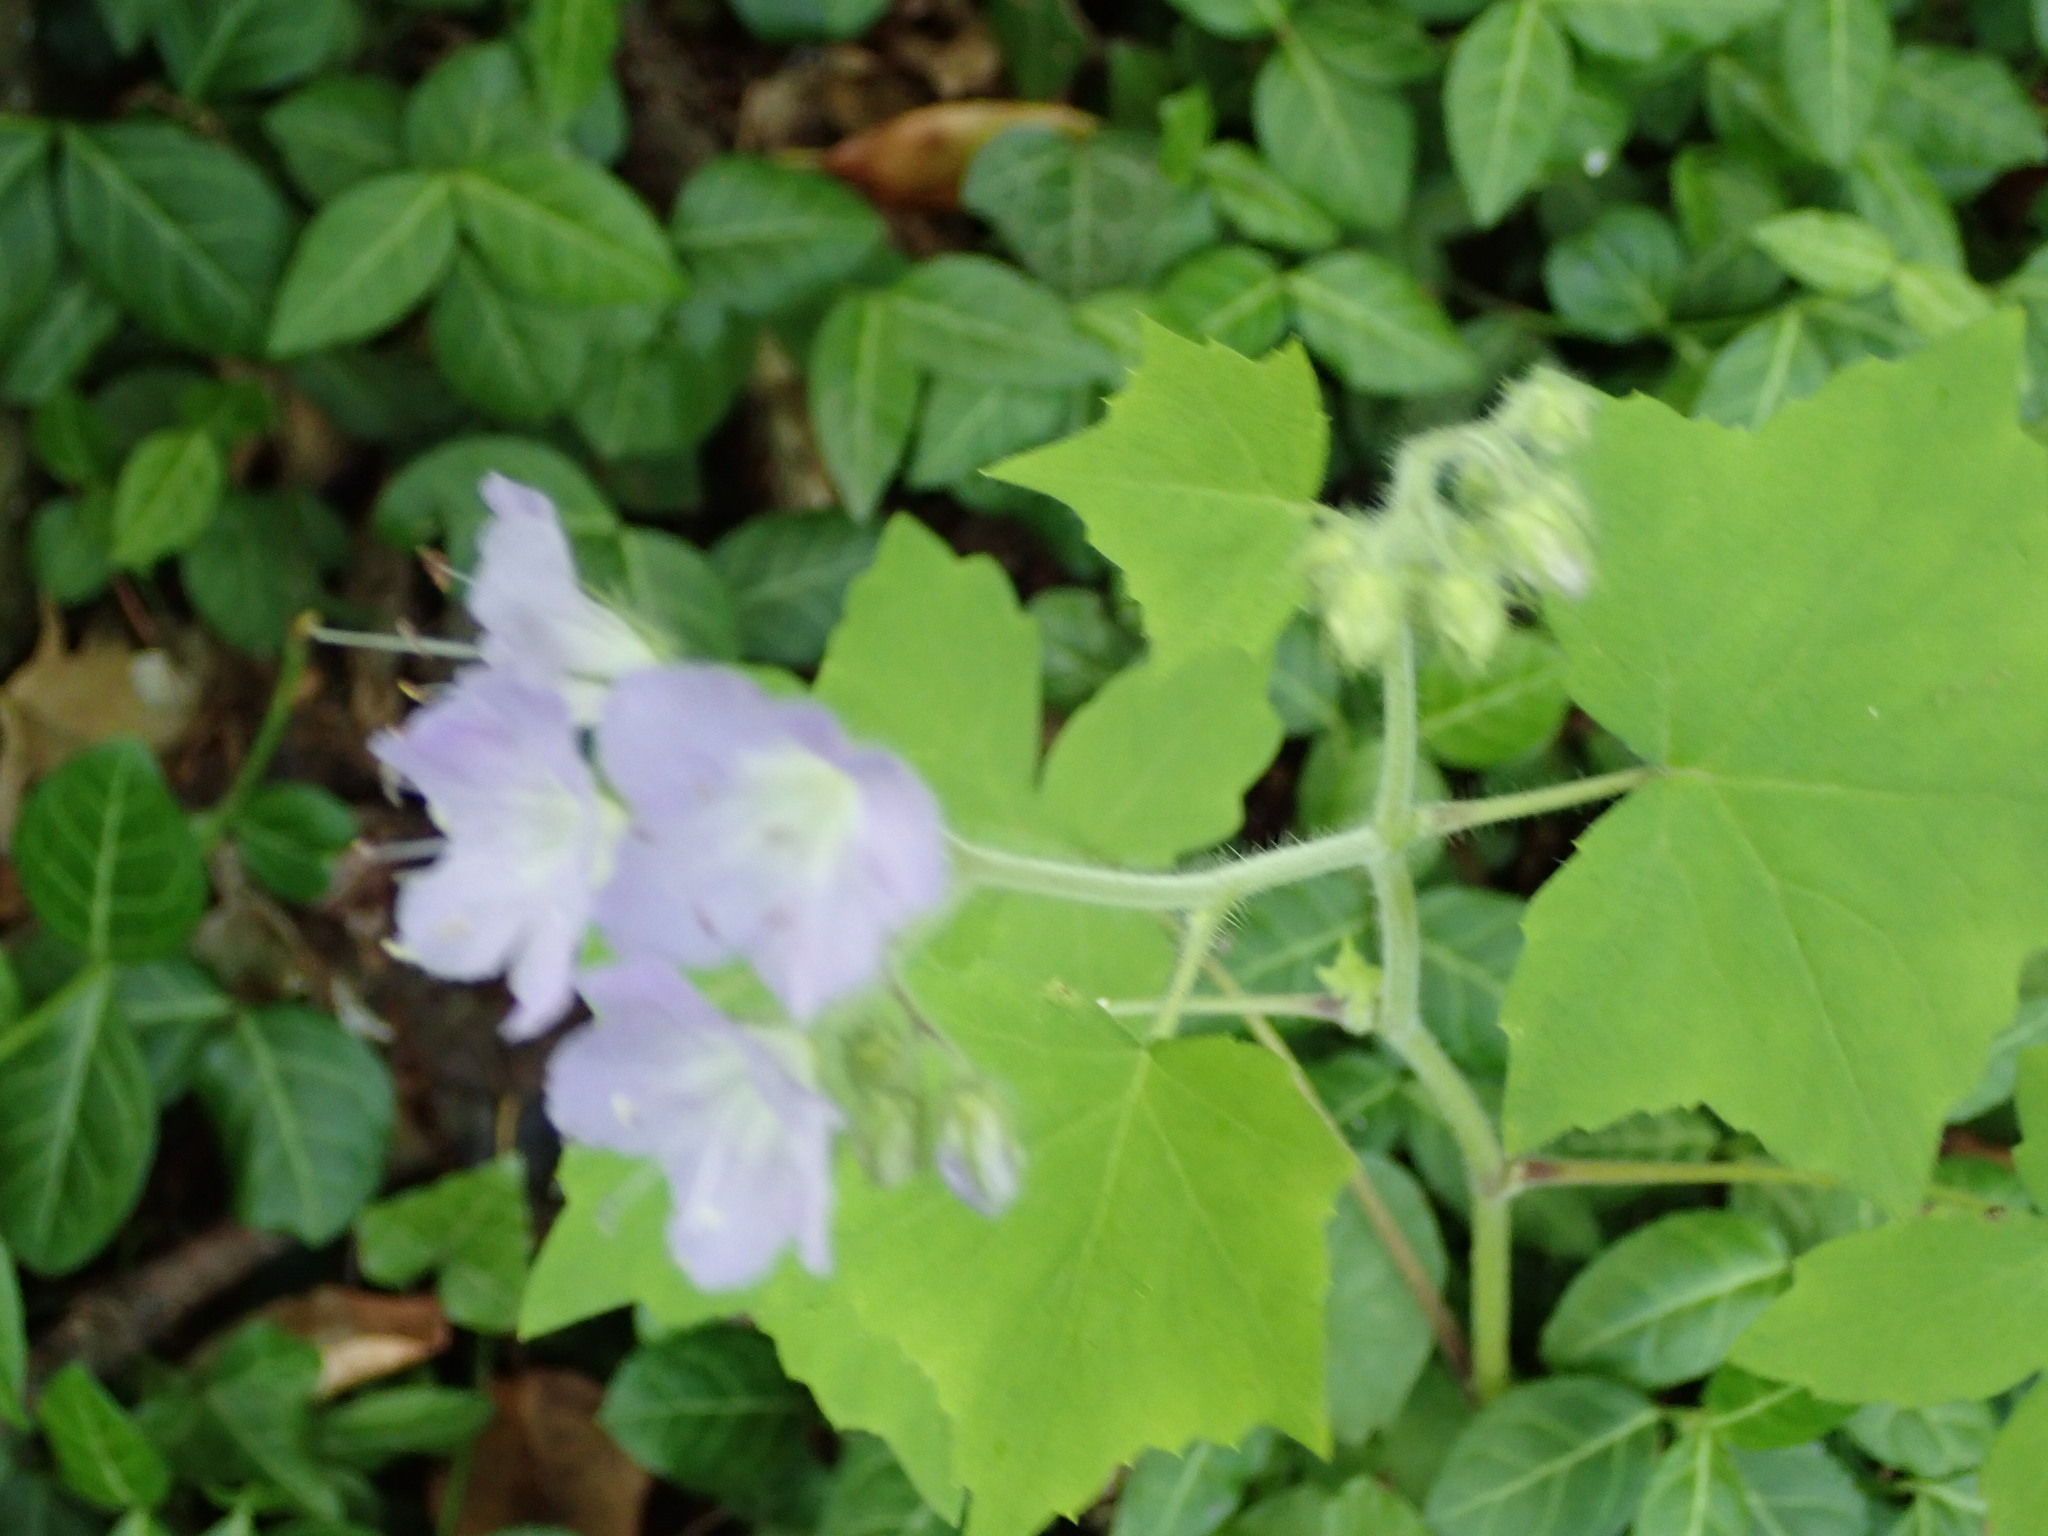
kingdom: Plantae
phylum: Tracheophyta
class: Magnoliopsida
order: Boraginales
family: Hydrophyllaceae
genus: Hydrophyllum
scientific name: Hydrophyllum appendiculatum
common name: Appendaged waterleaf
